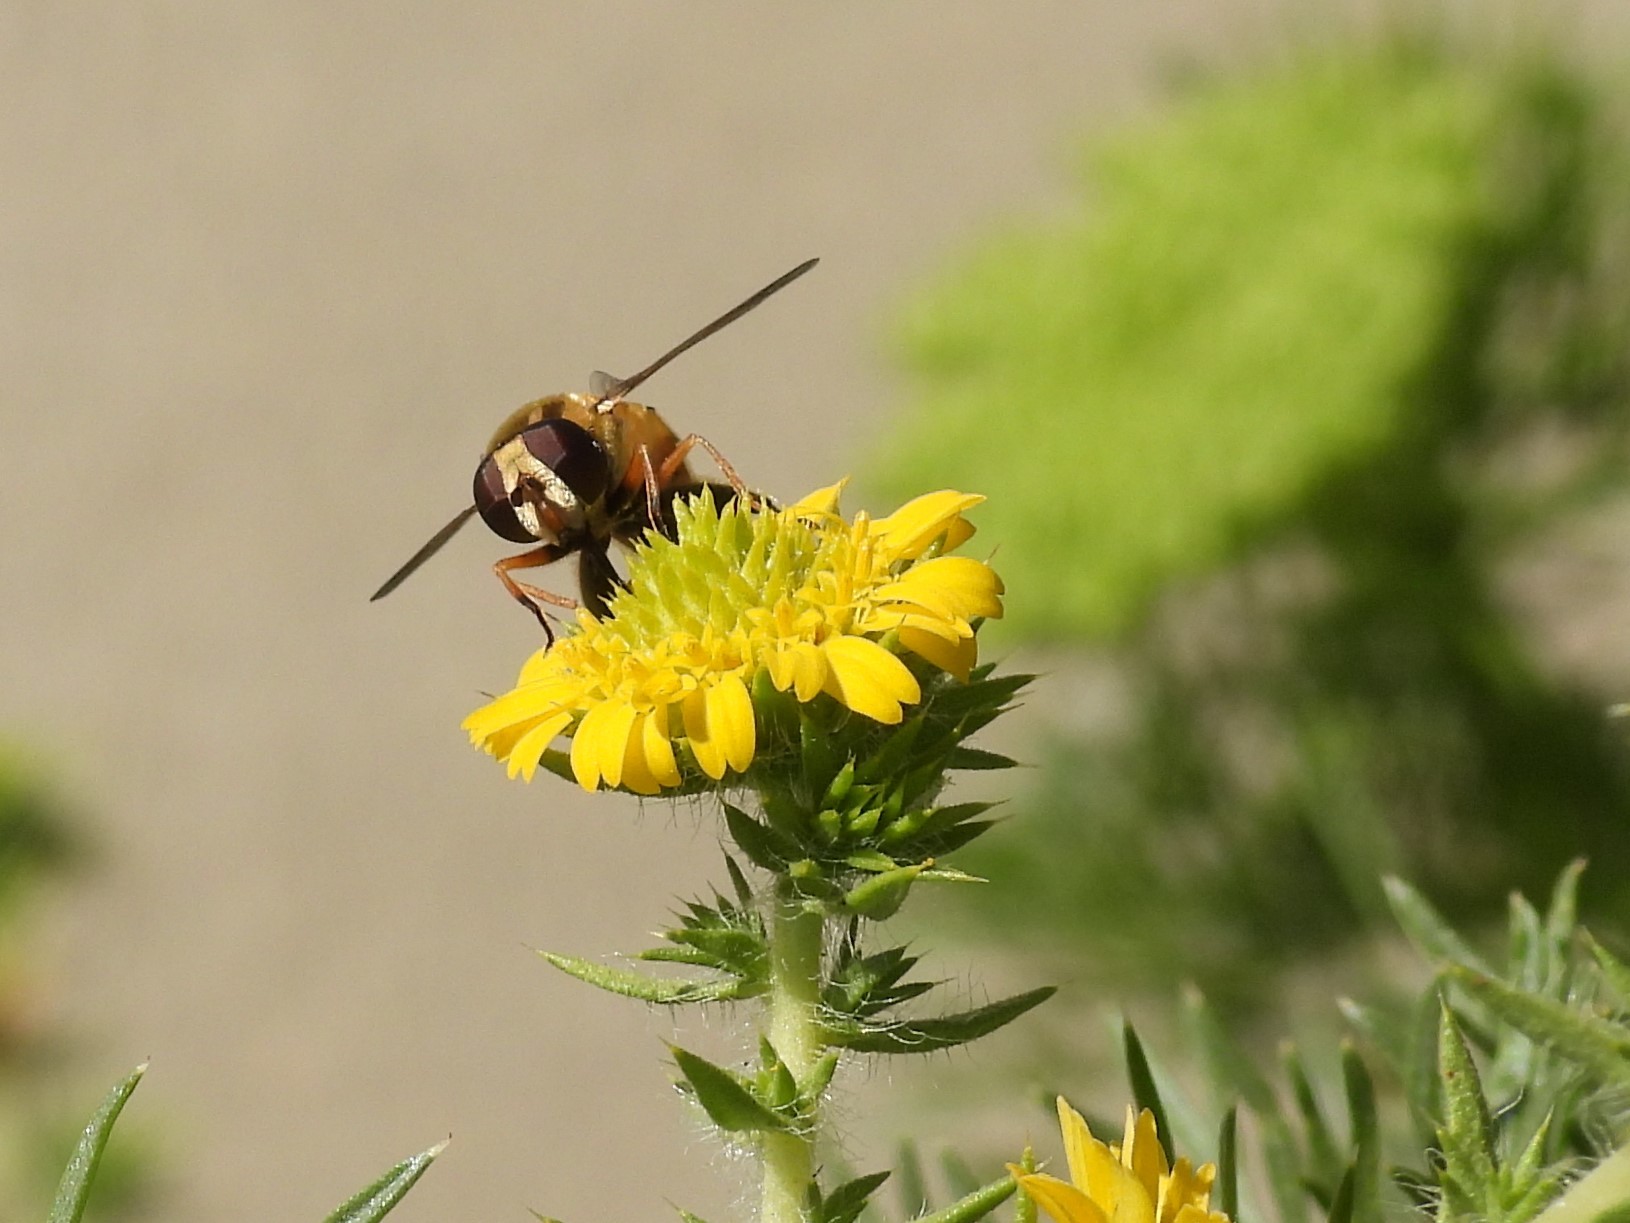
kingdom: Animalia
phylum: Arthropoda
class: Insecta
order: Diptera
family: Syrphidae
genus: Helophilus
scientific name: Helophilus latifrons
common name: Broad-headed marsh fly
